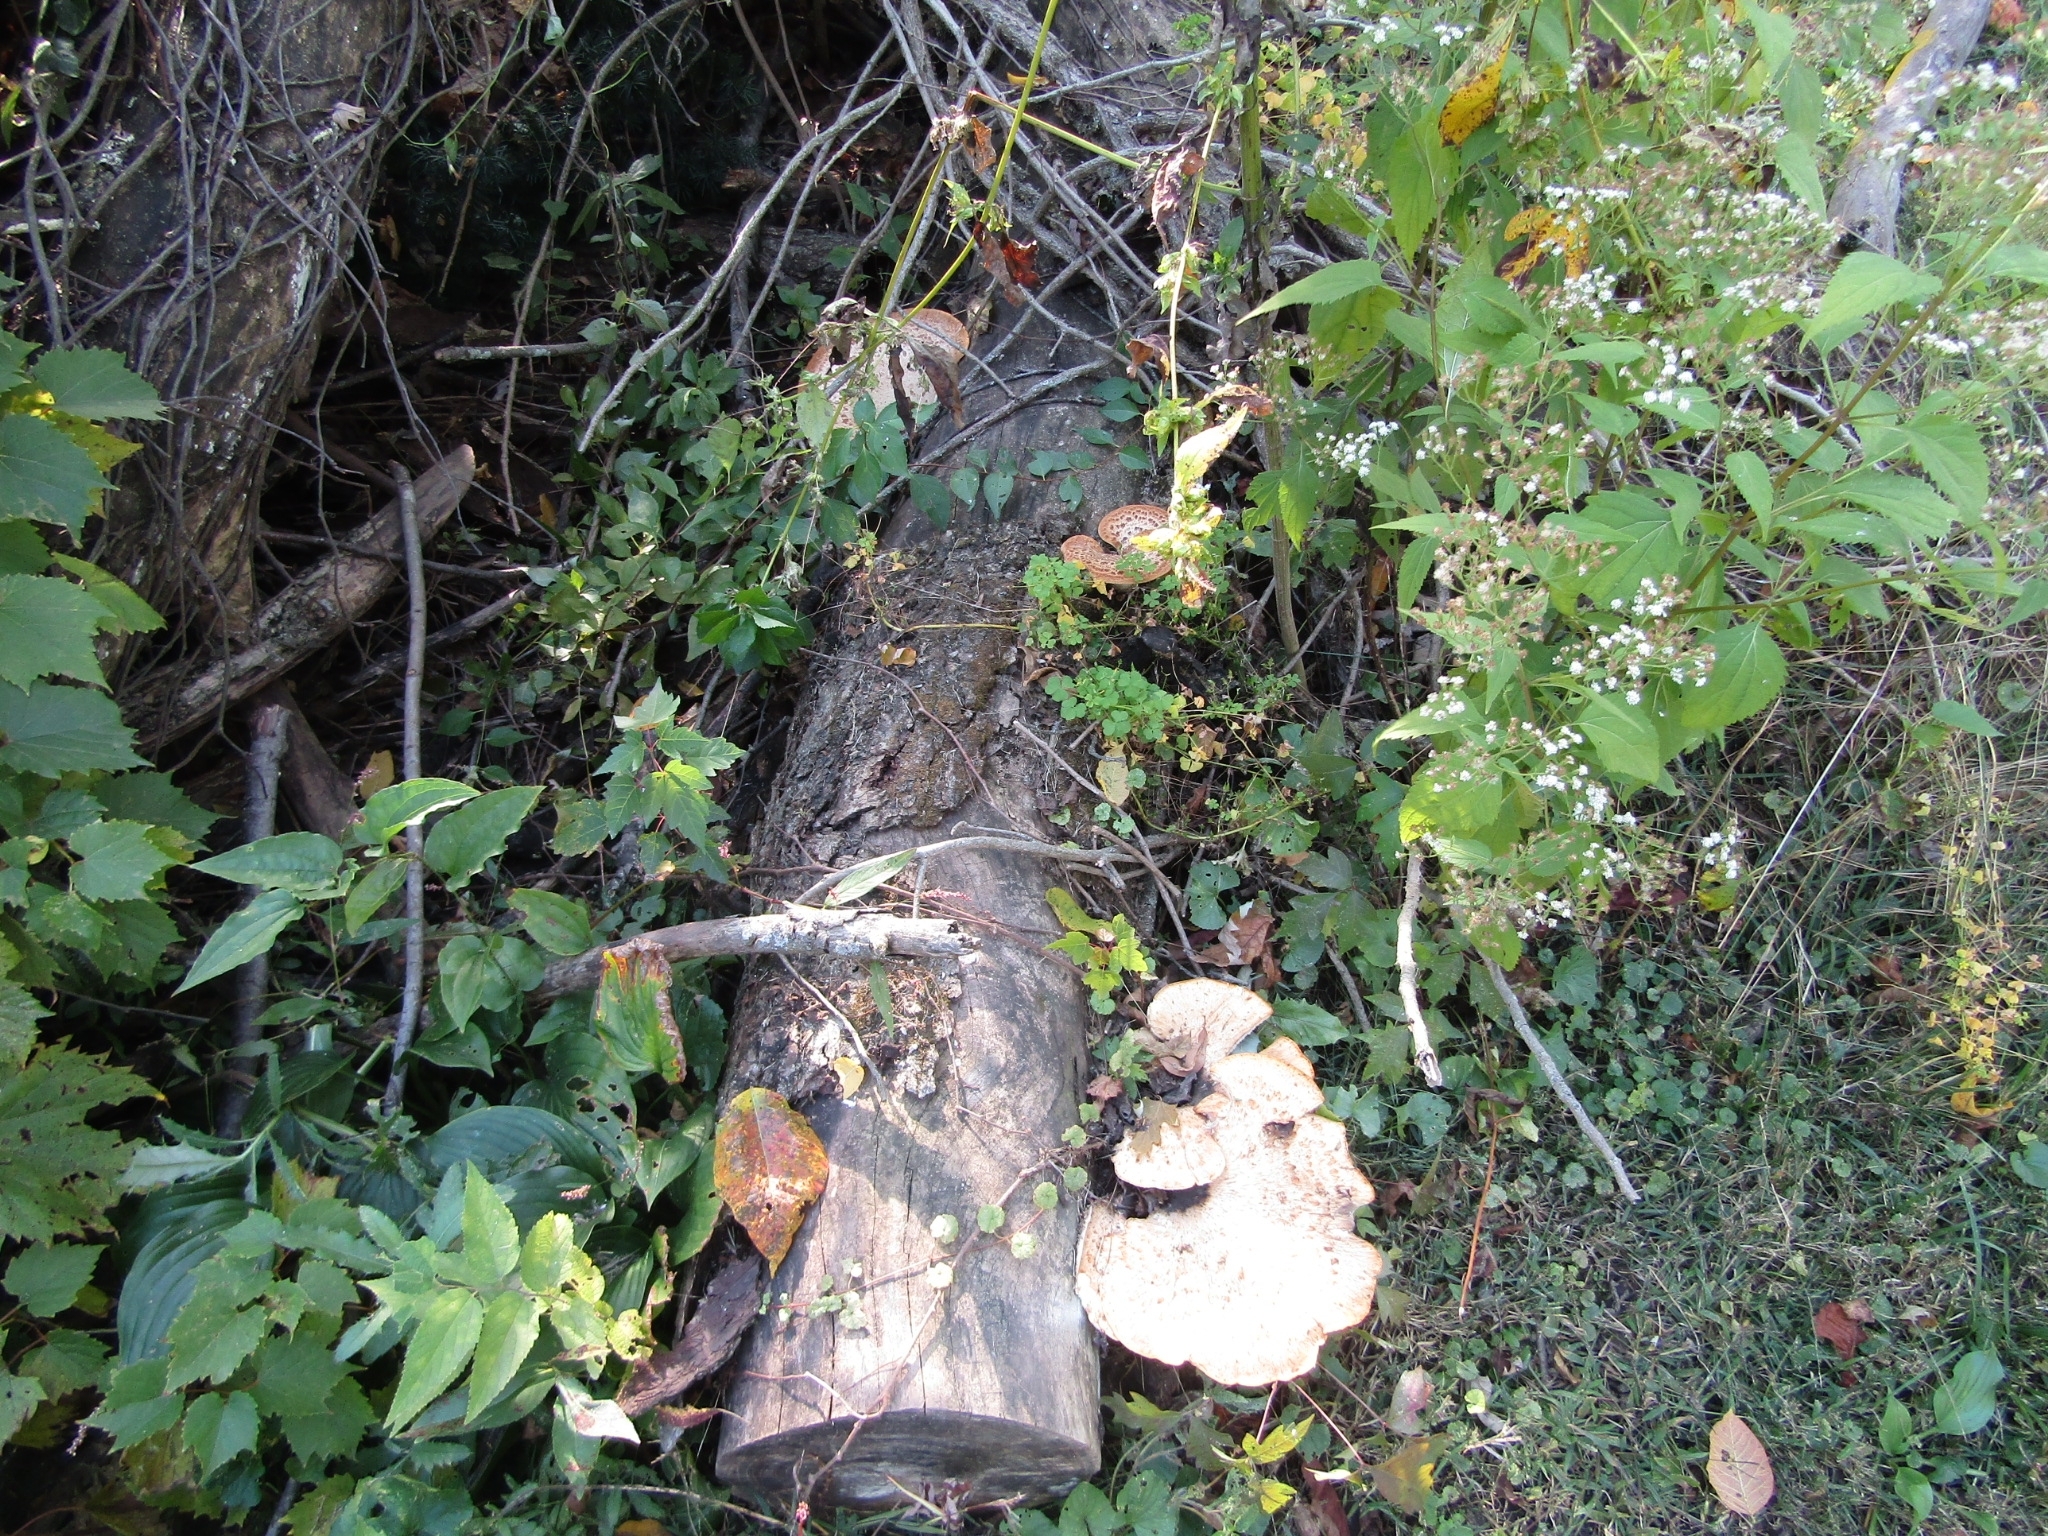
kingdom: Fungi
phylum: Basidiomycota
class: Agaricomycetes
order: Polyporales
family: Polyporaceae
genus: Cerioporus
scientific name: Cerioporus squamosus
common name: Dryad's saddle
